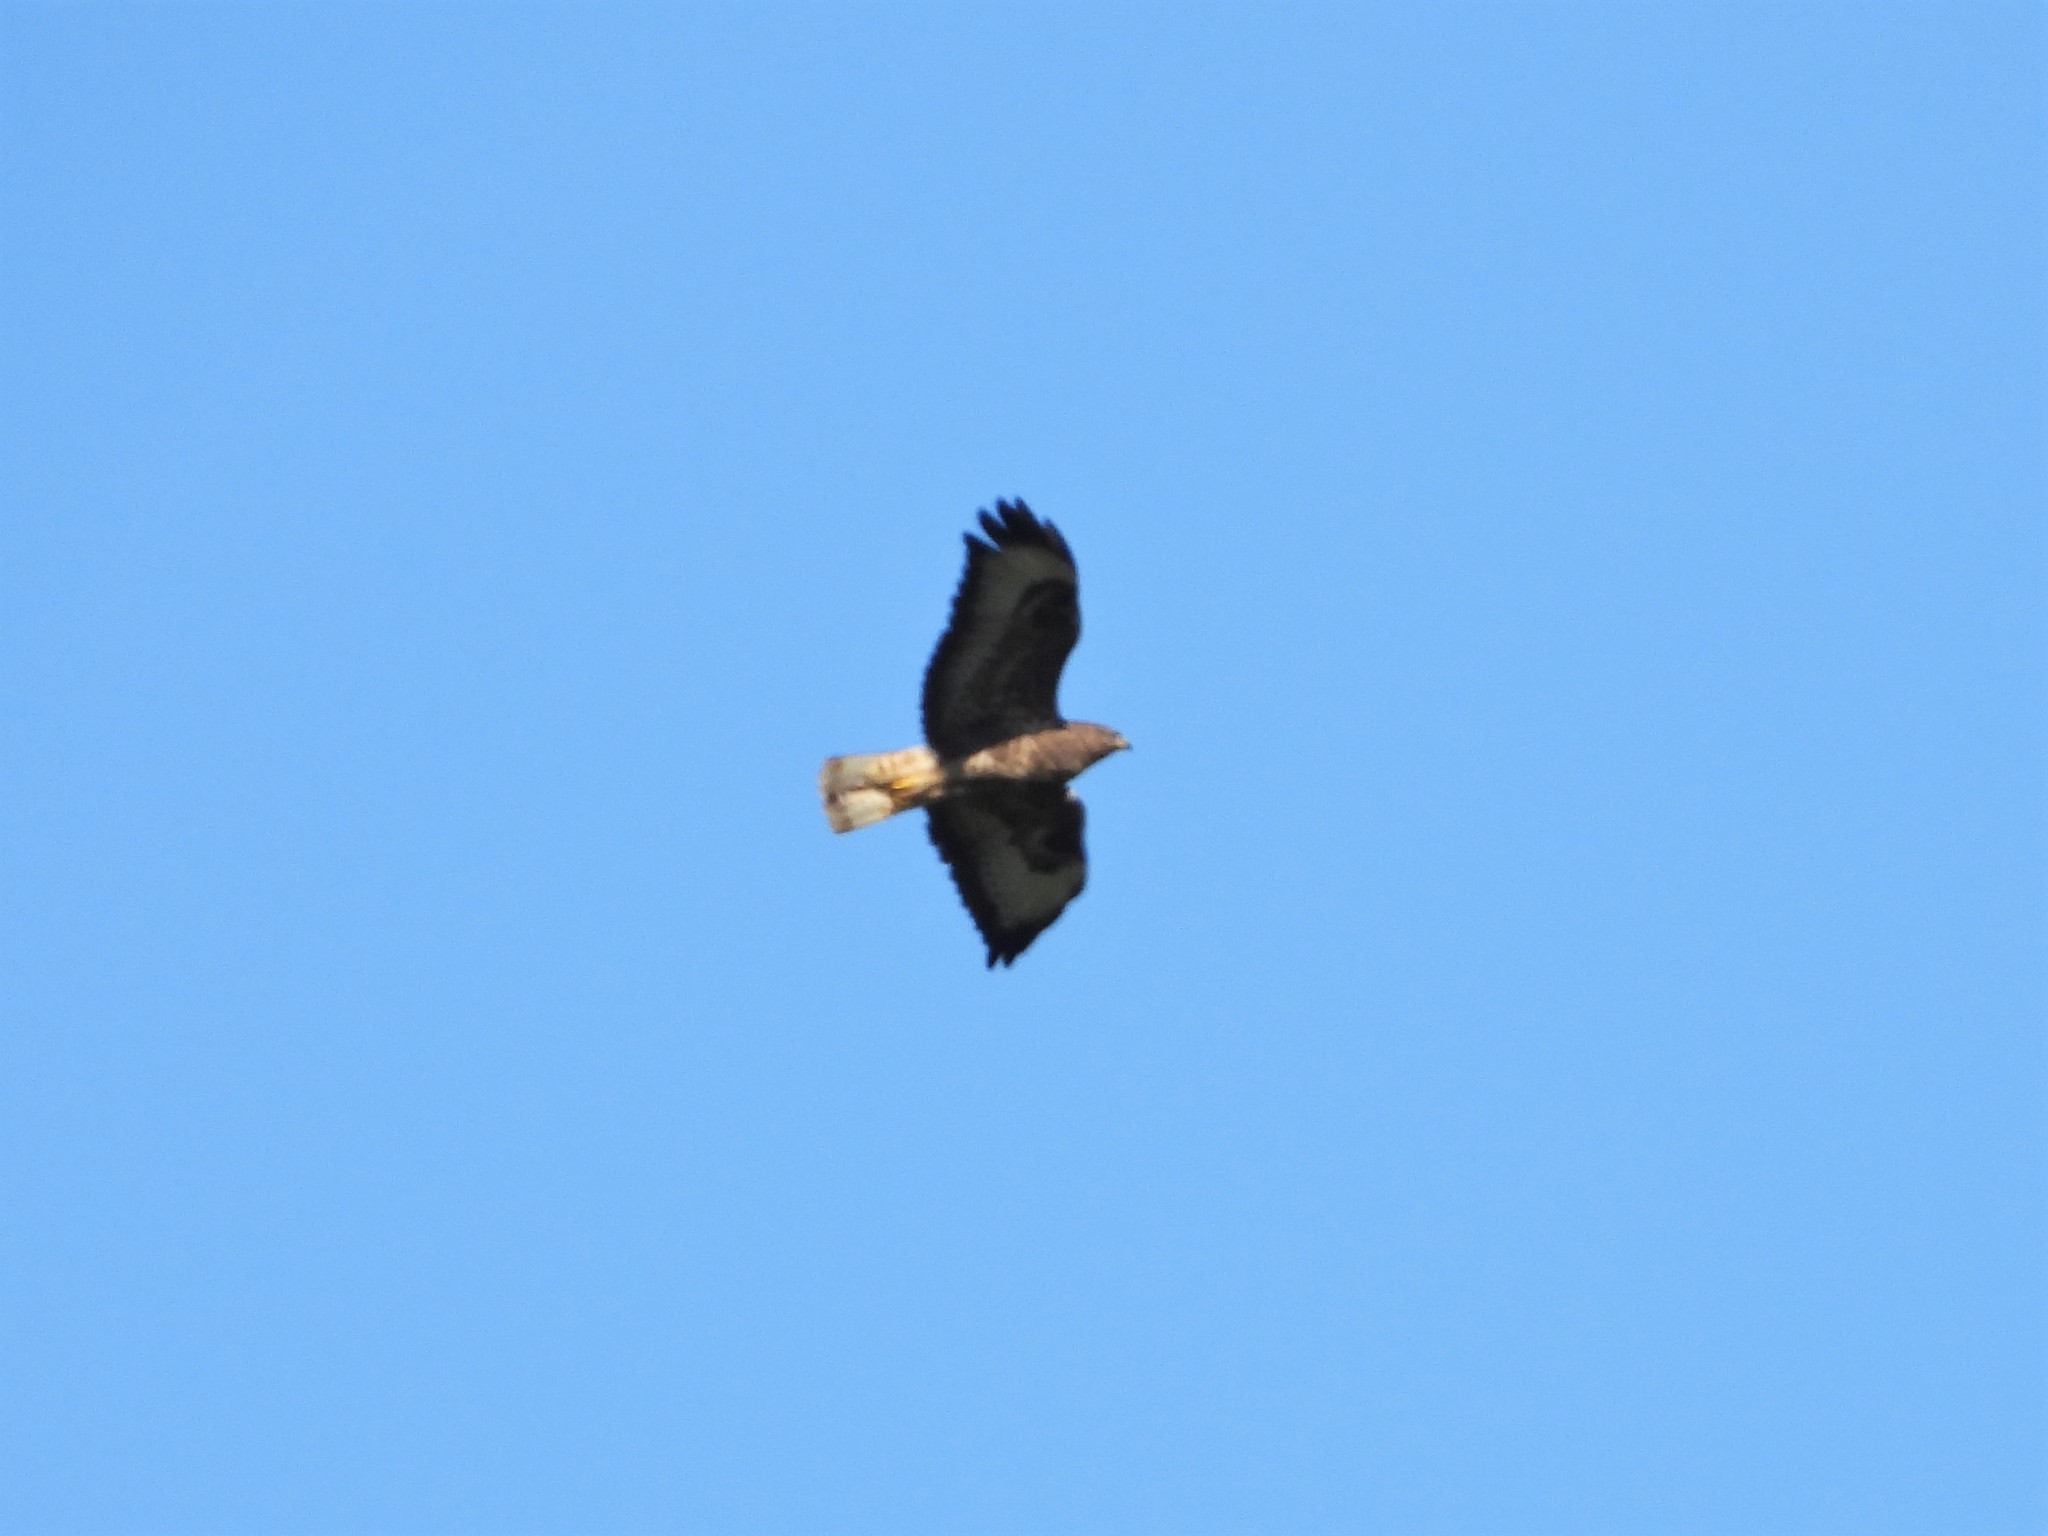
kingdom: Animalia
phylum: Chordata
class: Aves
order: Accipitriformes
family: Accipitridae
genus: Buteo
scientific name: Buteo buteo
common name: Common buzzard
